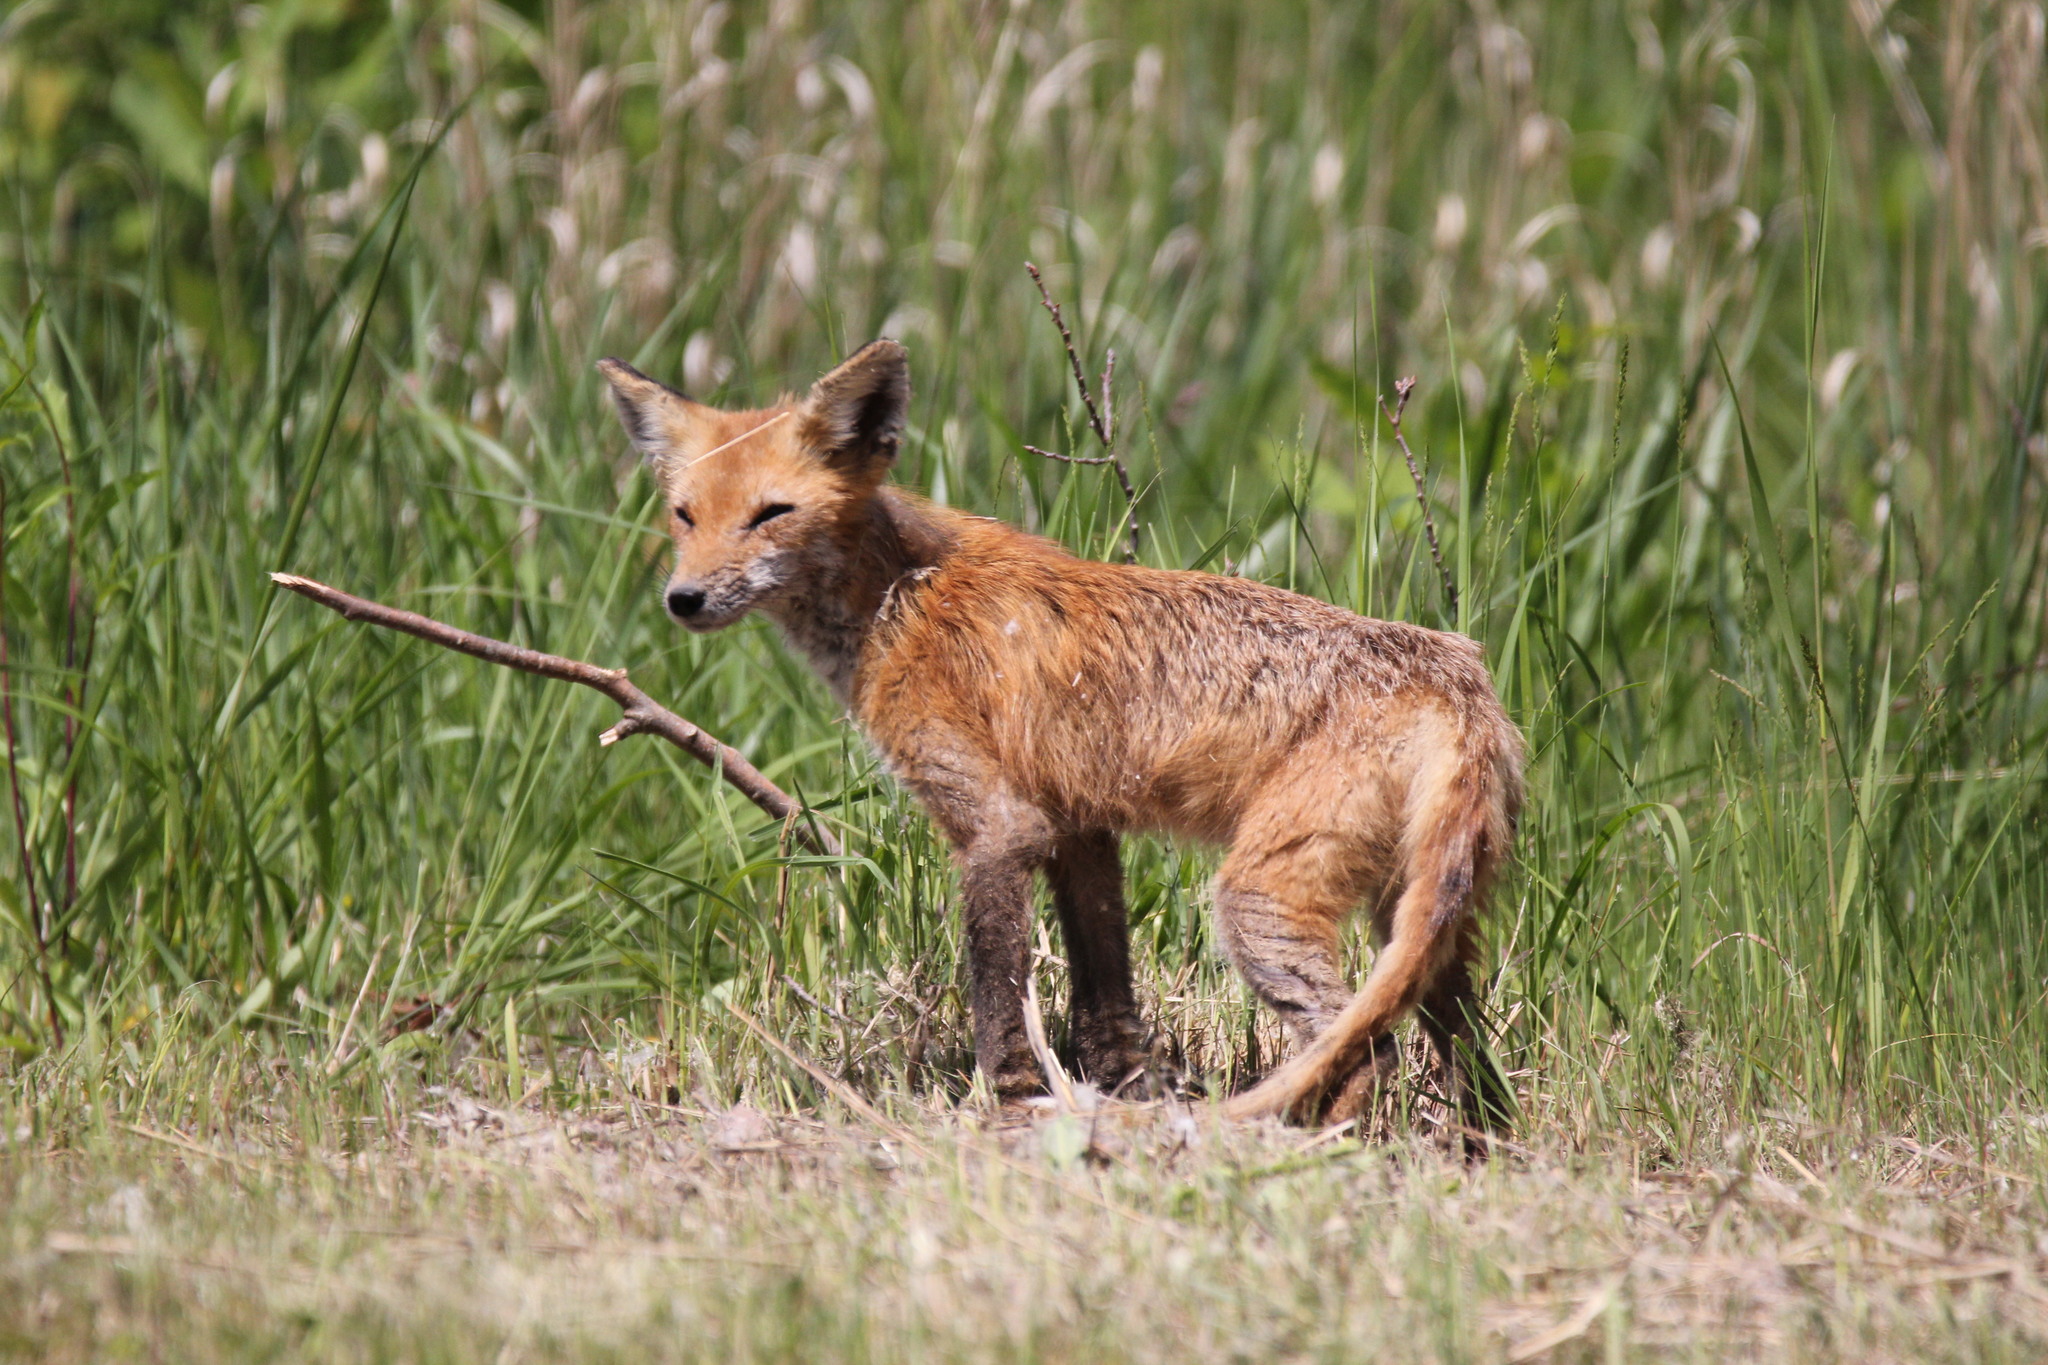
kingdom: Animalia
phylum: Chordata
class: Mammalia
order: Carnivora
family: Canidae
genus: Vulpes
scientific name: Vulpes vulpes
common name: Red fox
